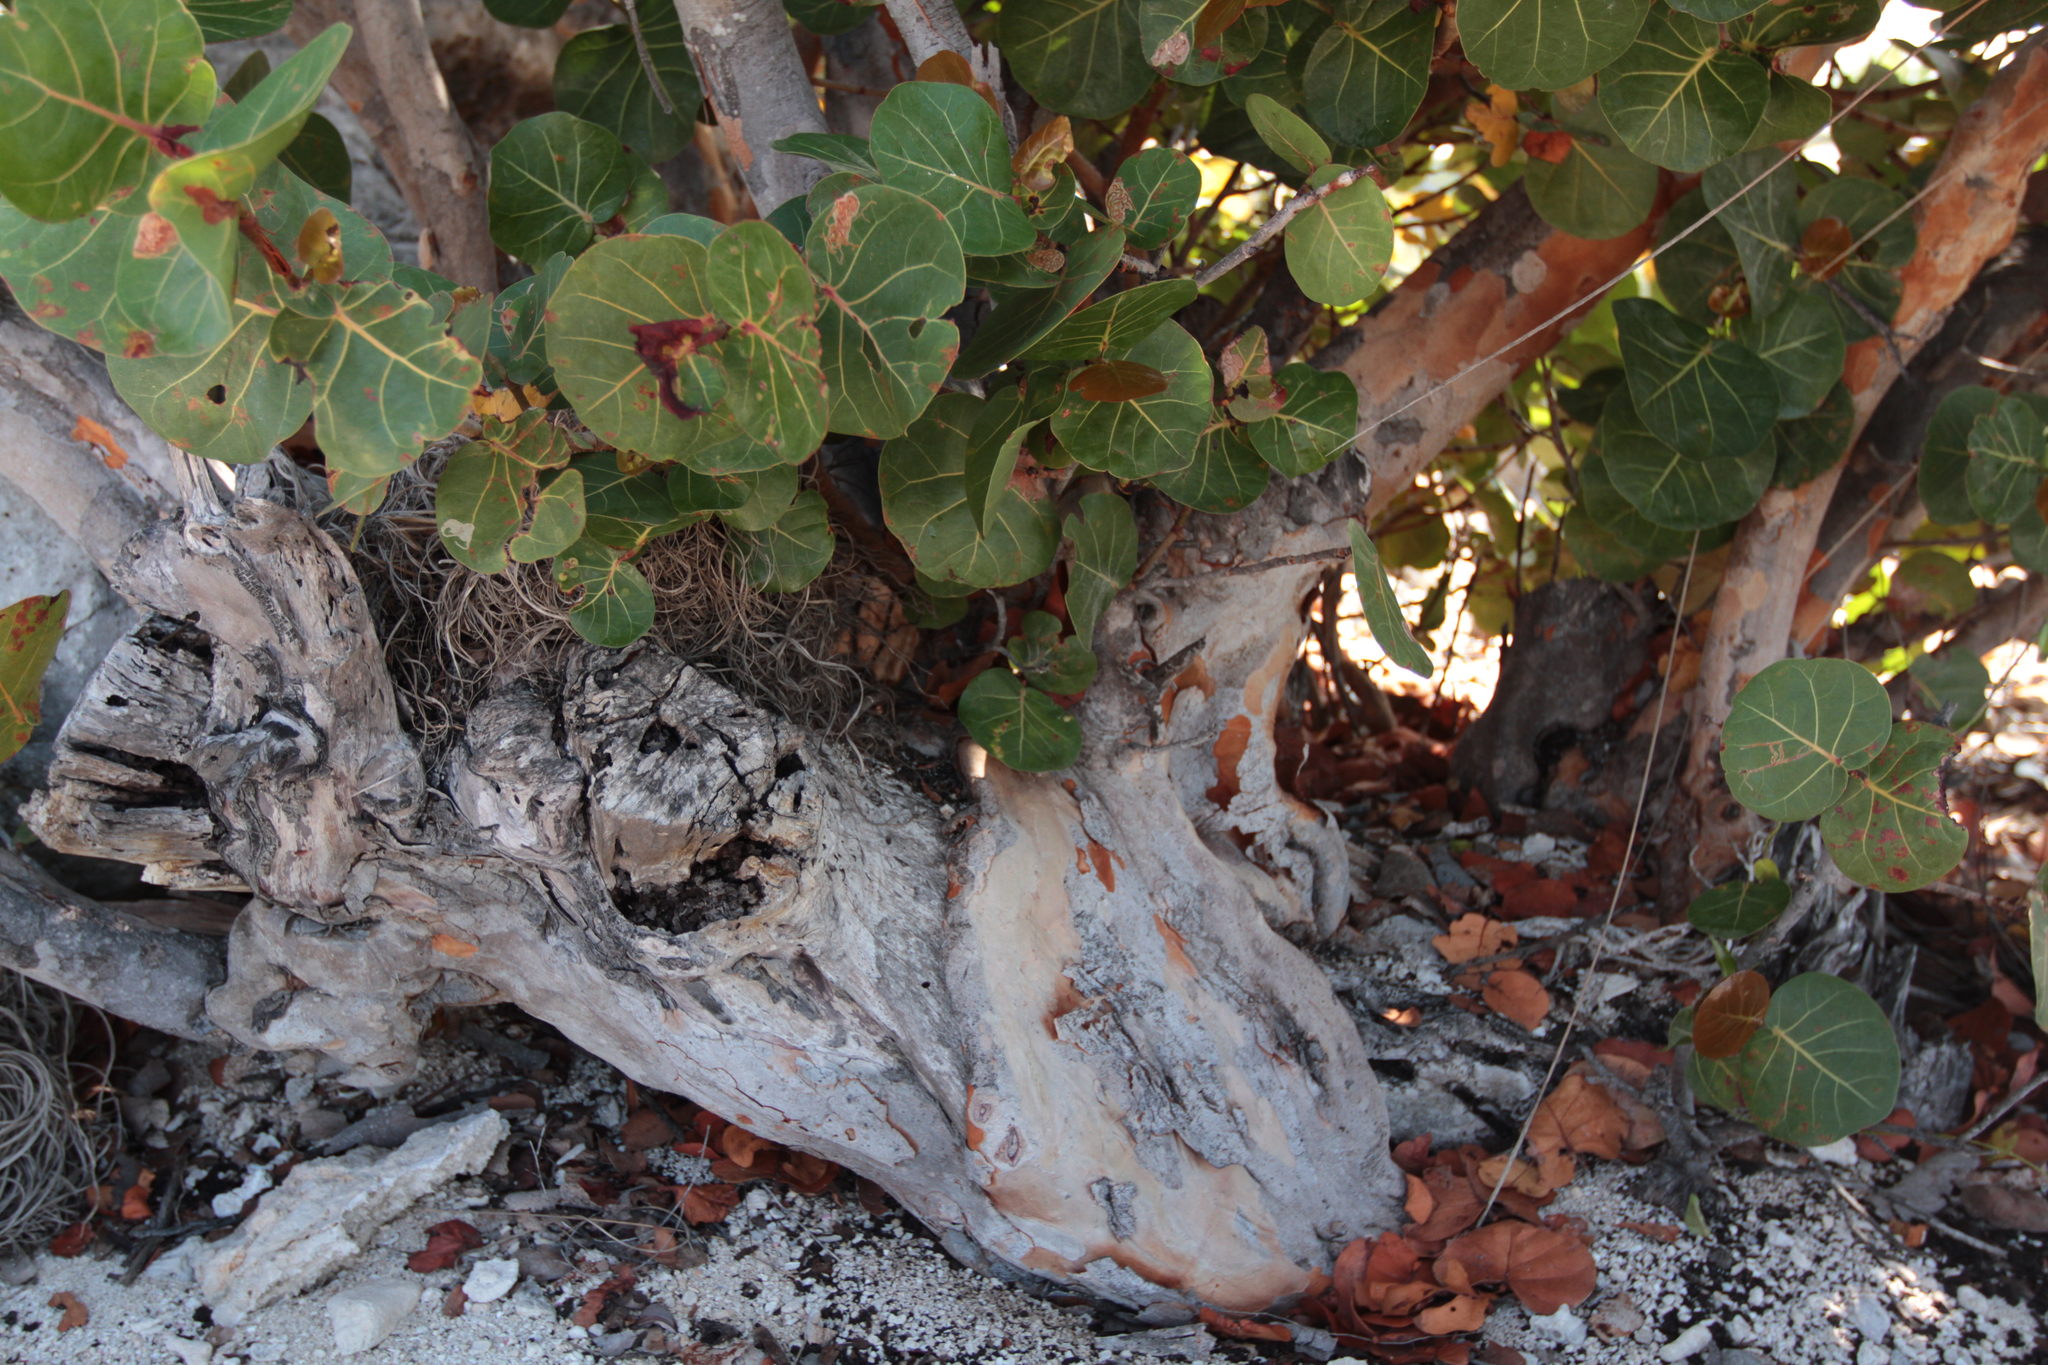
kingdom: Plantae
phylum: Tracheophyta
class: Magnoliopsida
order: Caryophyllales
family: Polygonaceae
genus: Coccoloba
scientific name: Coccoloba uvifera
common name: Seagrape
